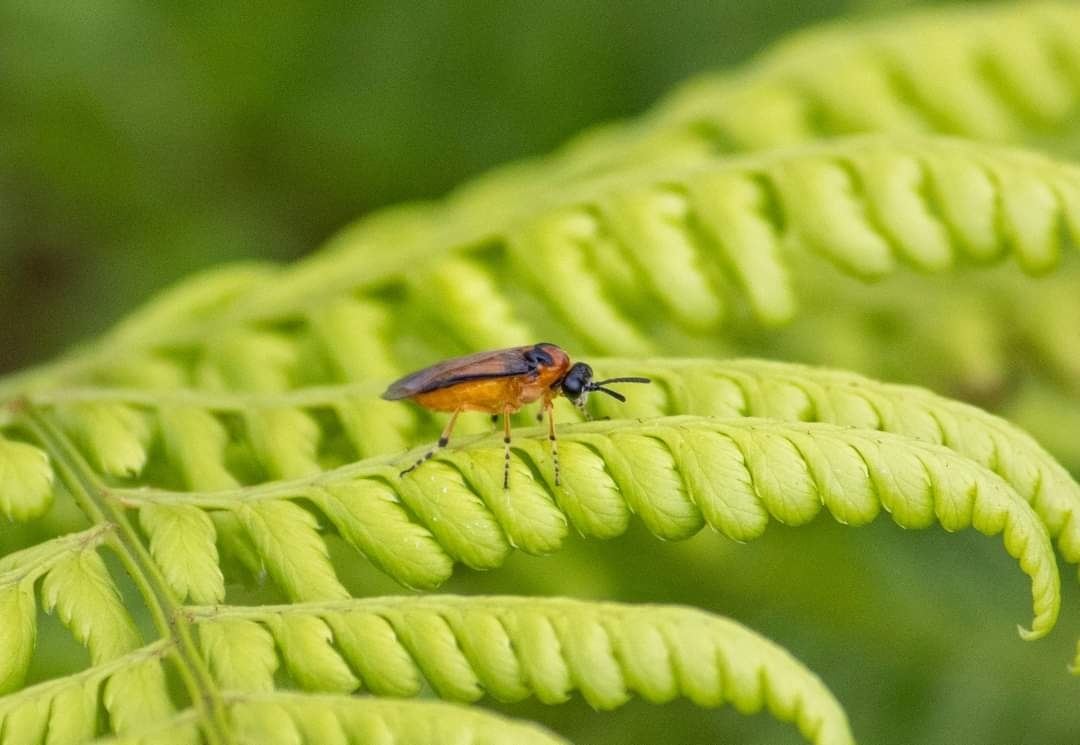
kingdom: Animalia
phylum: Arthropoda
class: Insecta
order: Hymenoptera
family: Tenthredinidae
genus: Athalia
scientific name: Athalia rosae
